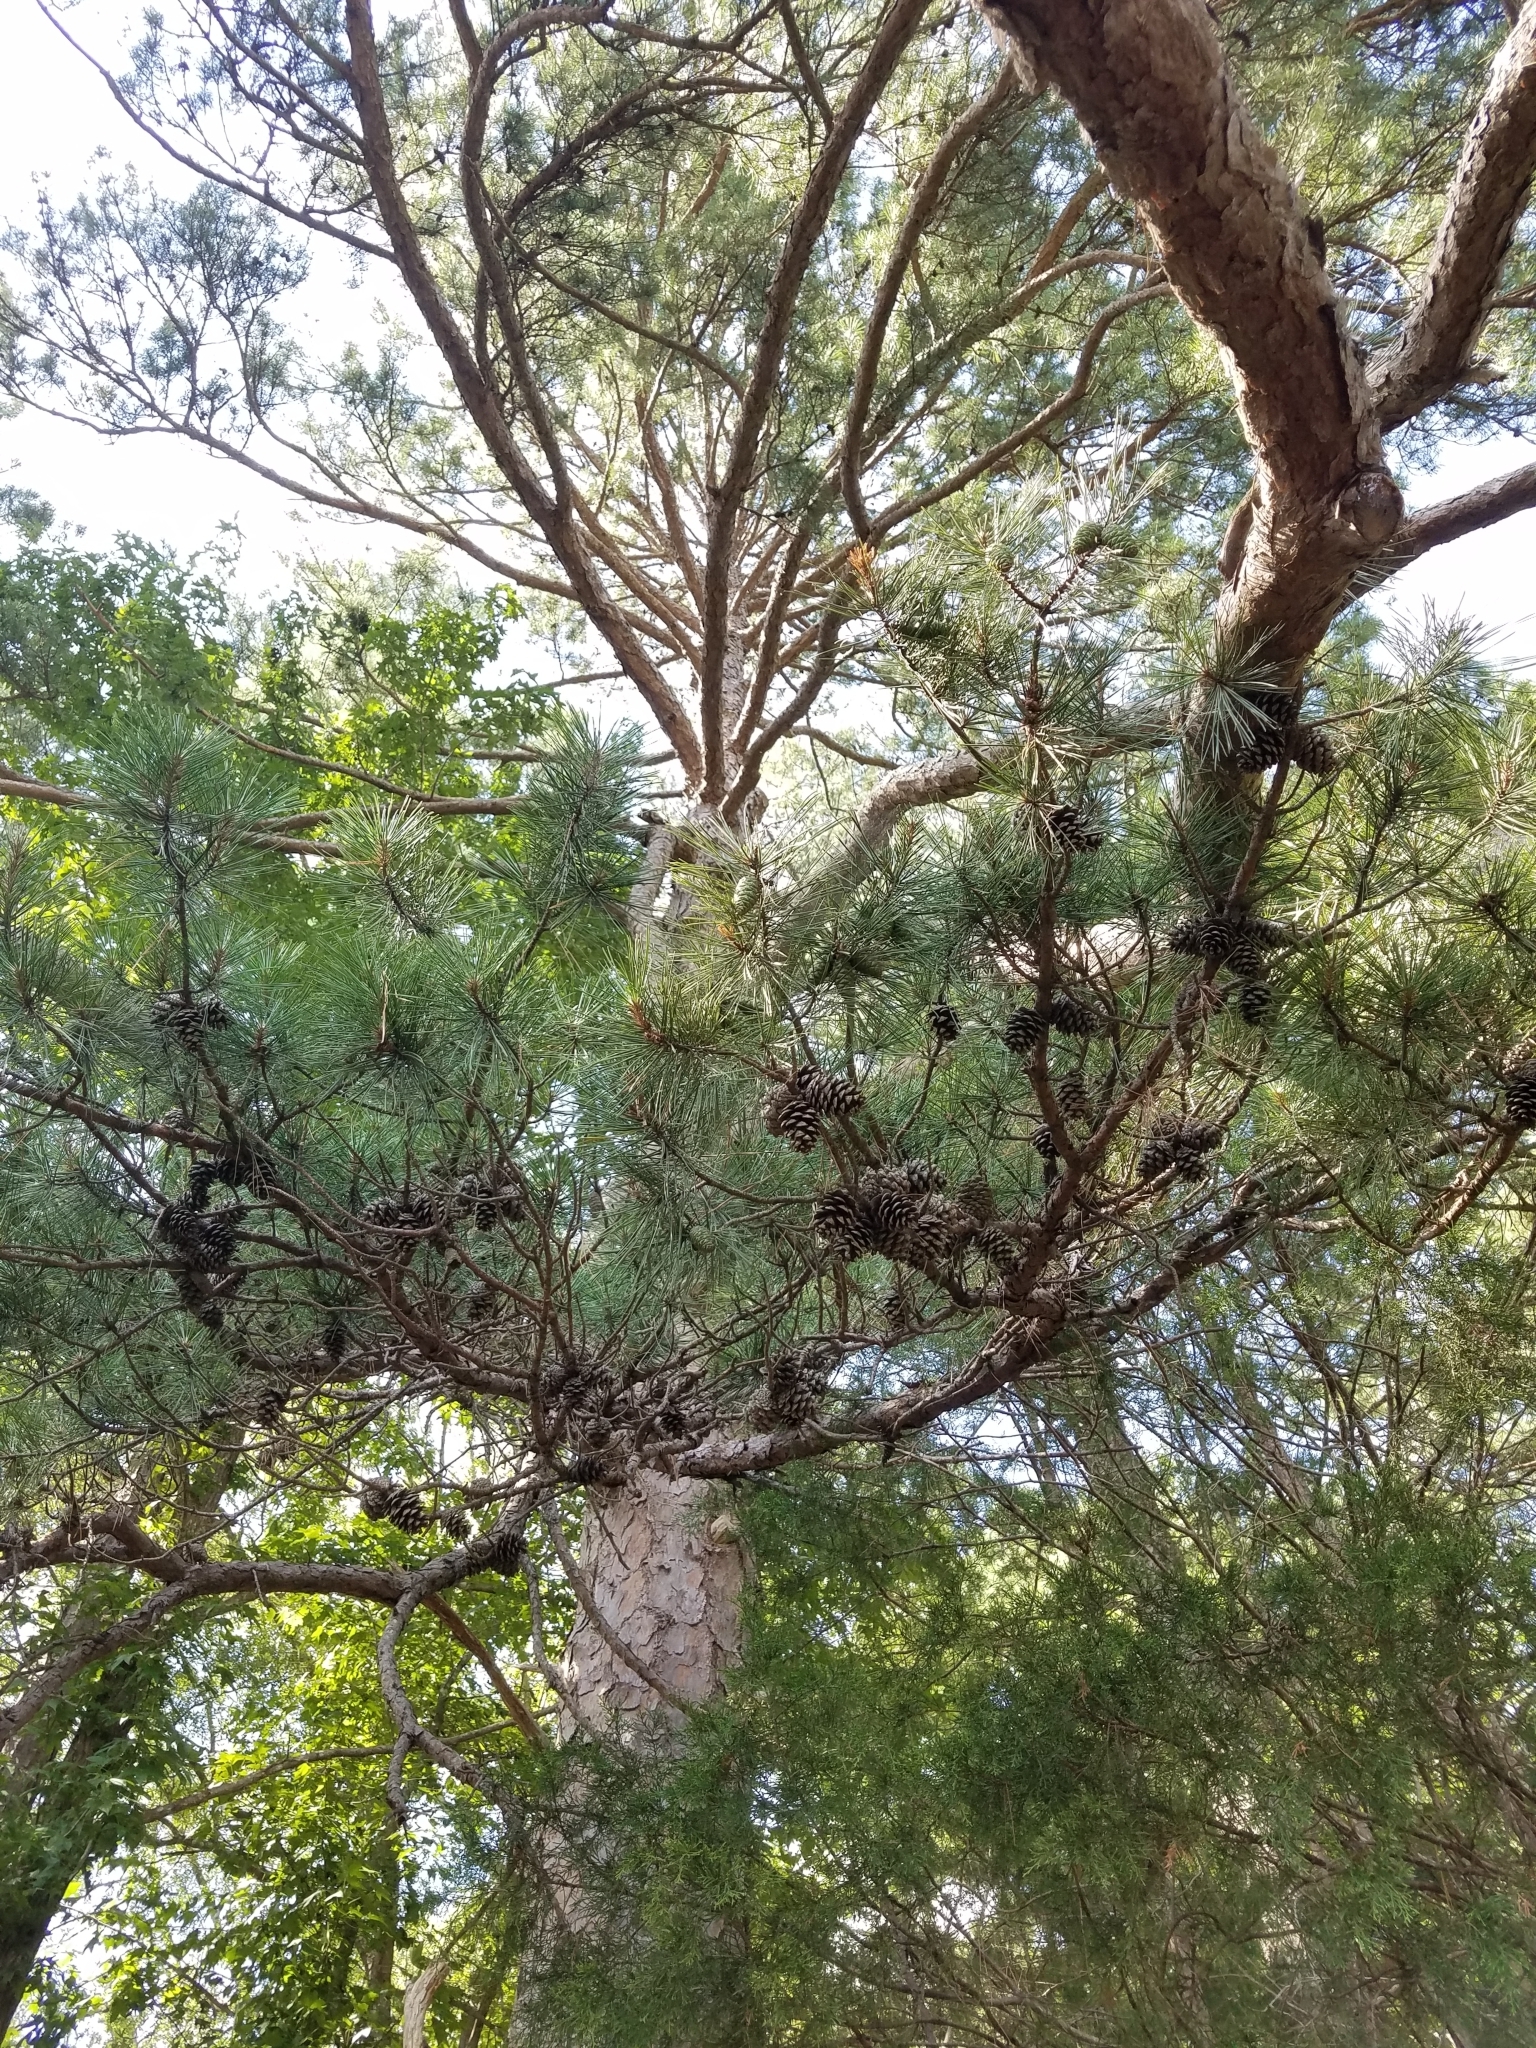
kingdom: Plantae
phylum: Tracheophyta
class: Pinopsida
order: Pinales
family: Pinaceae
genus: Pinus
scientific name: Pinus echinata
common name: Shortleaf pine
